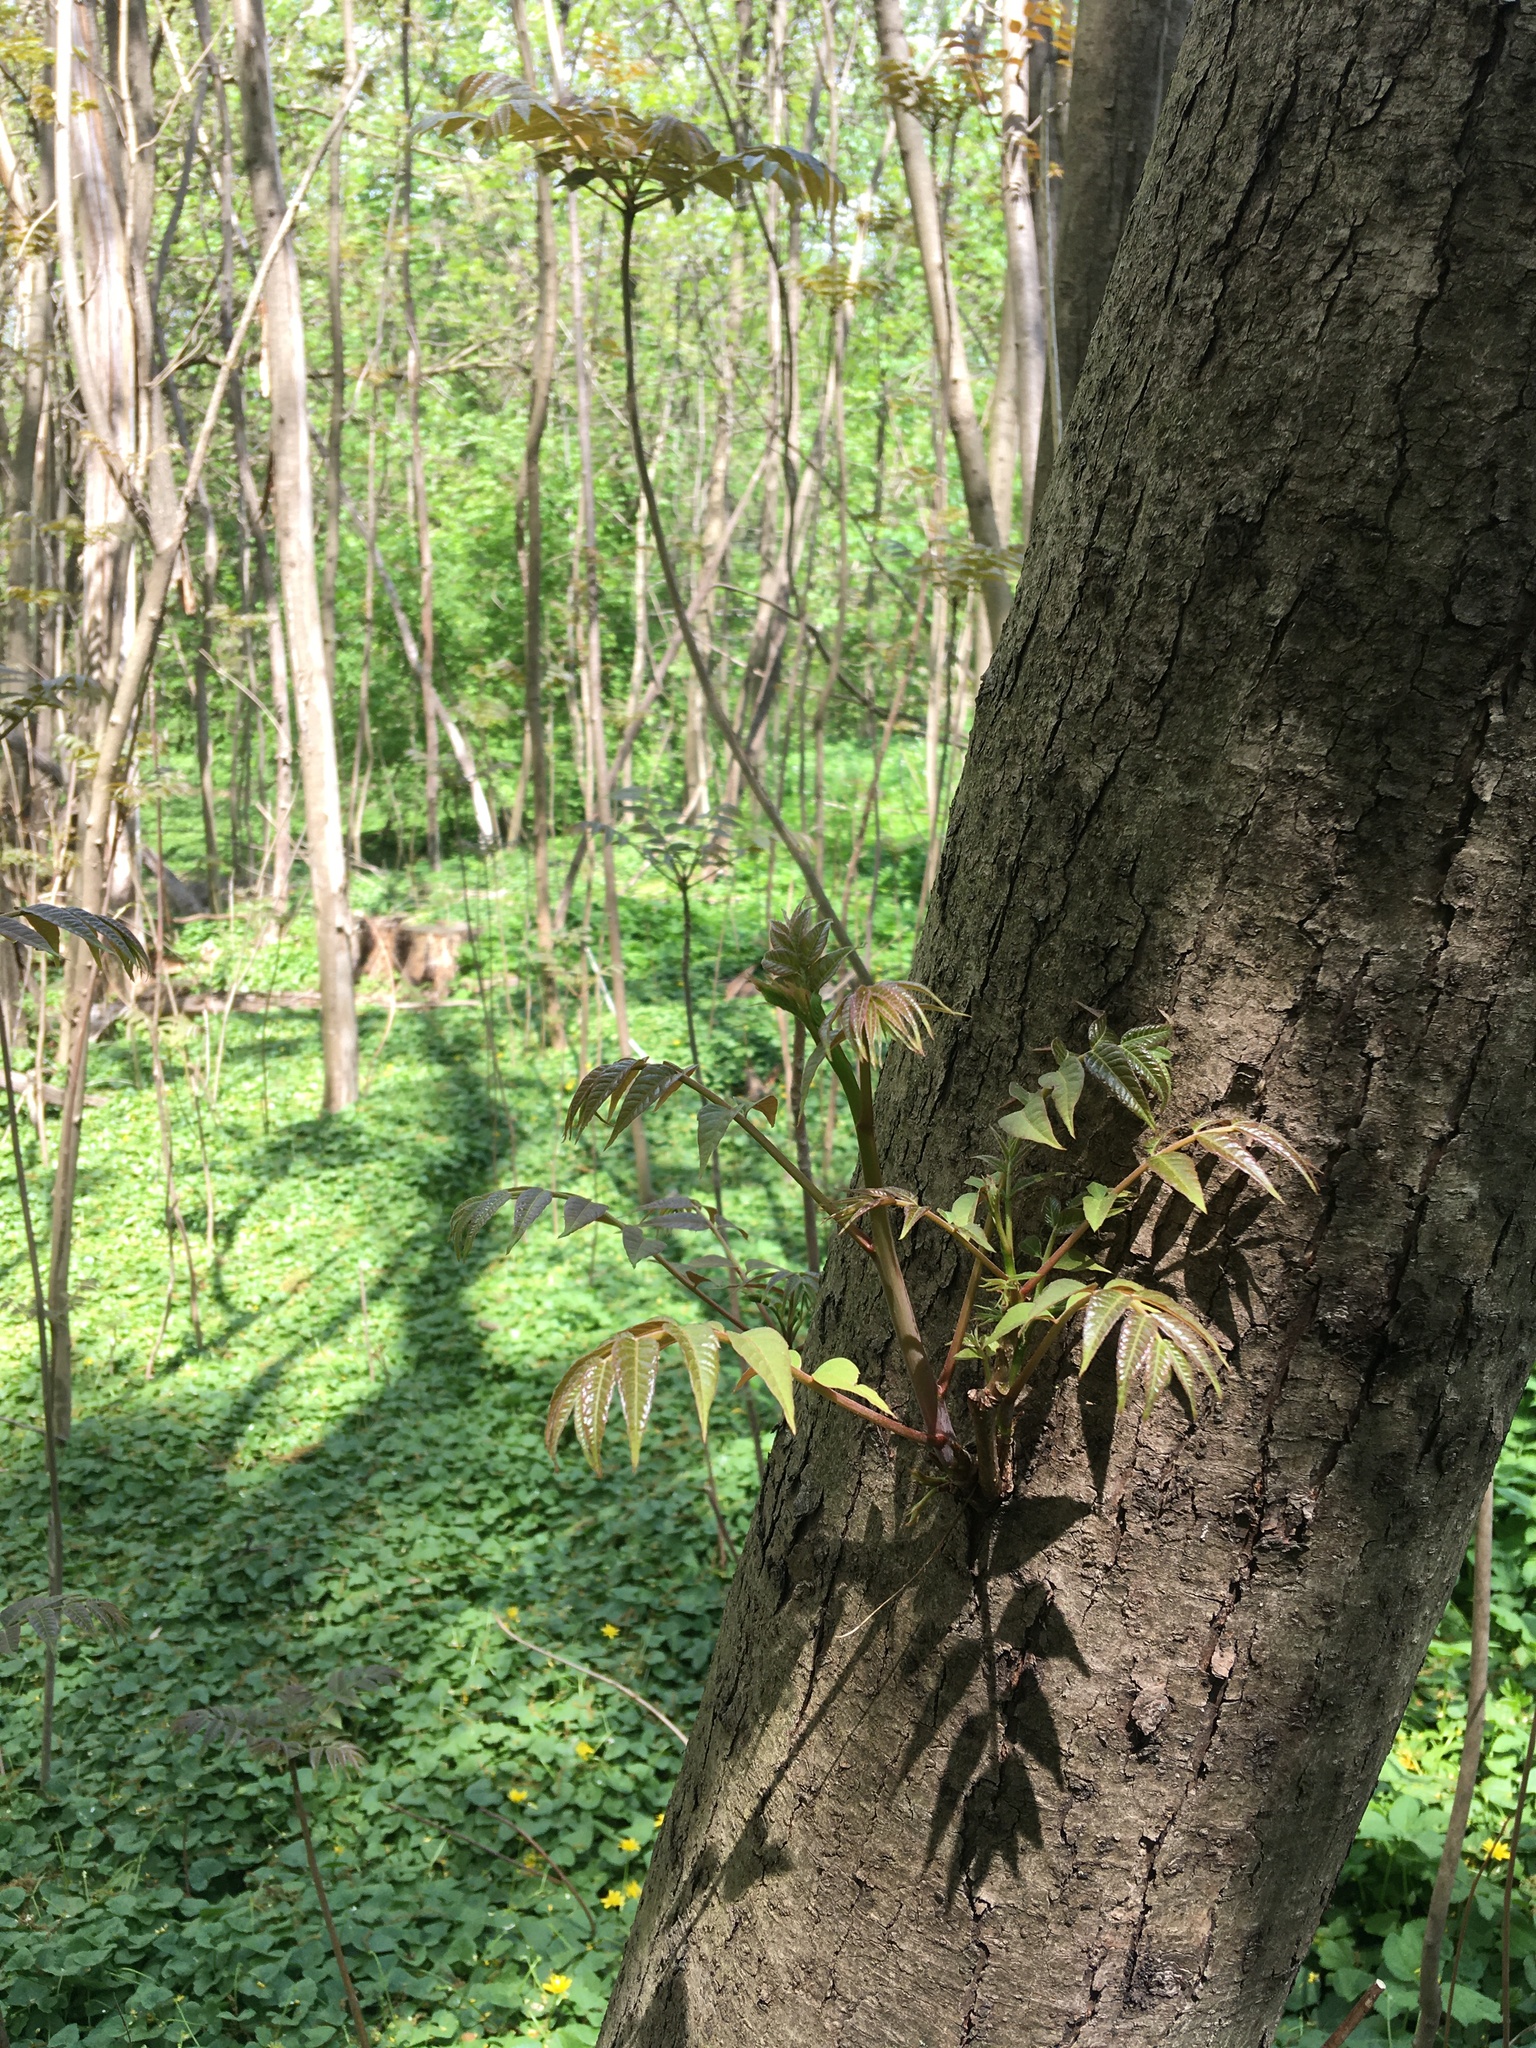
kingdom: Plantae
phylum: Tracheophyta
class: Magnoliopsida
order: Sapindales
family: Meliaceae
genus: Toona
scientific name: Toona sinensis
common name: Red toon
